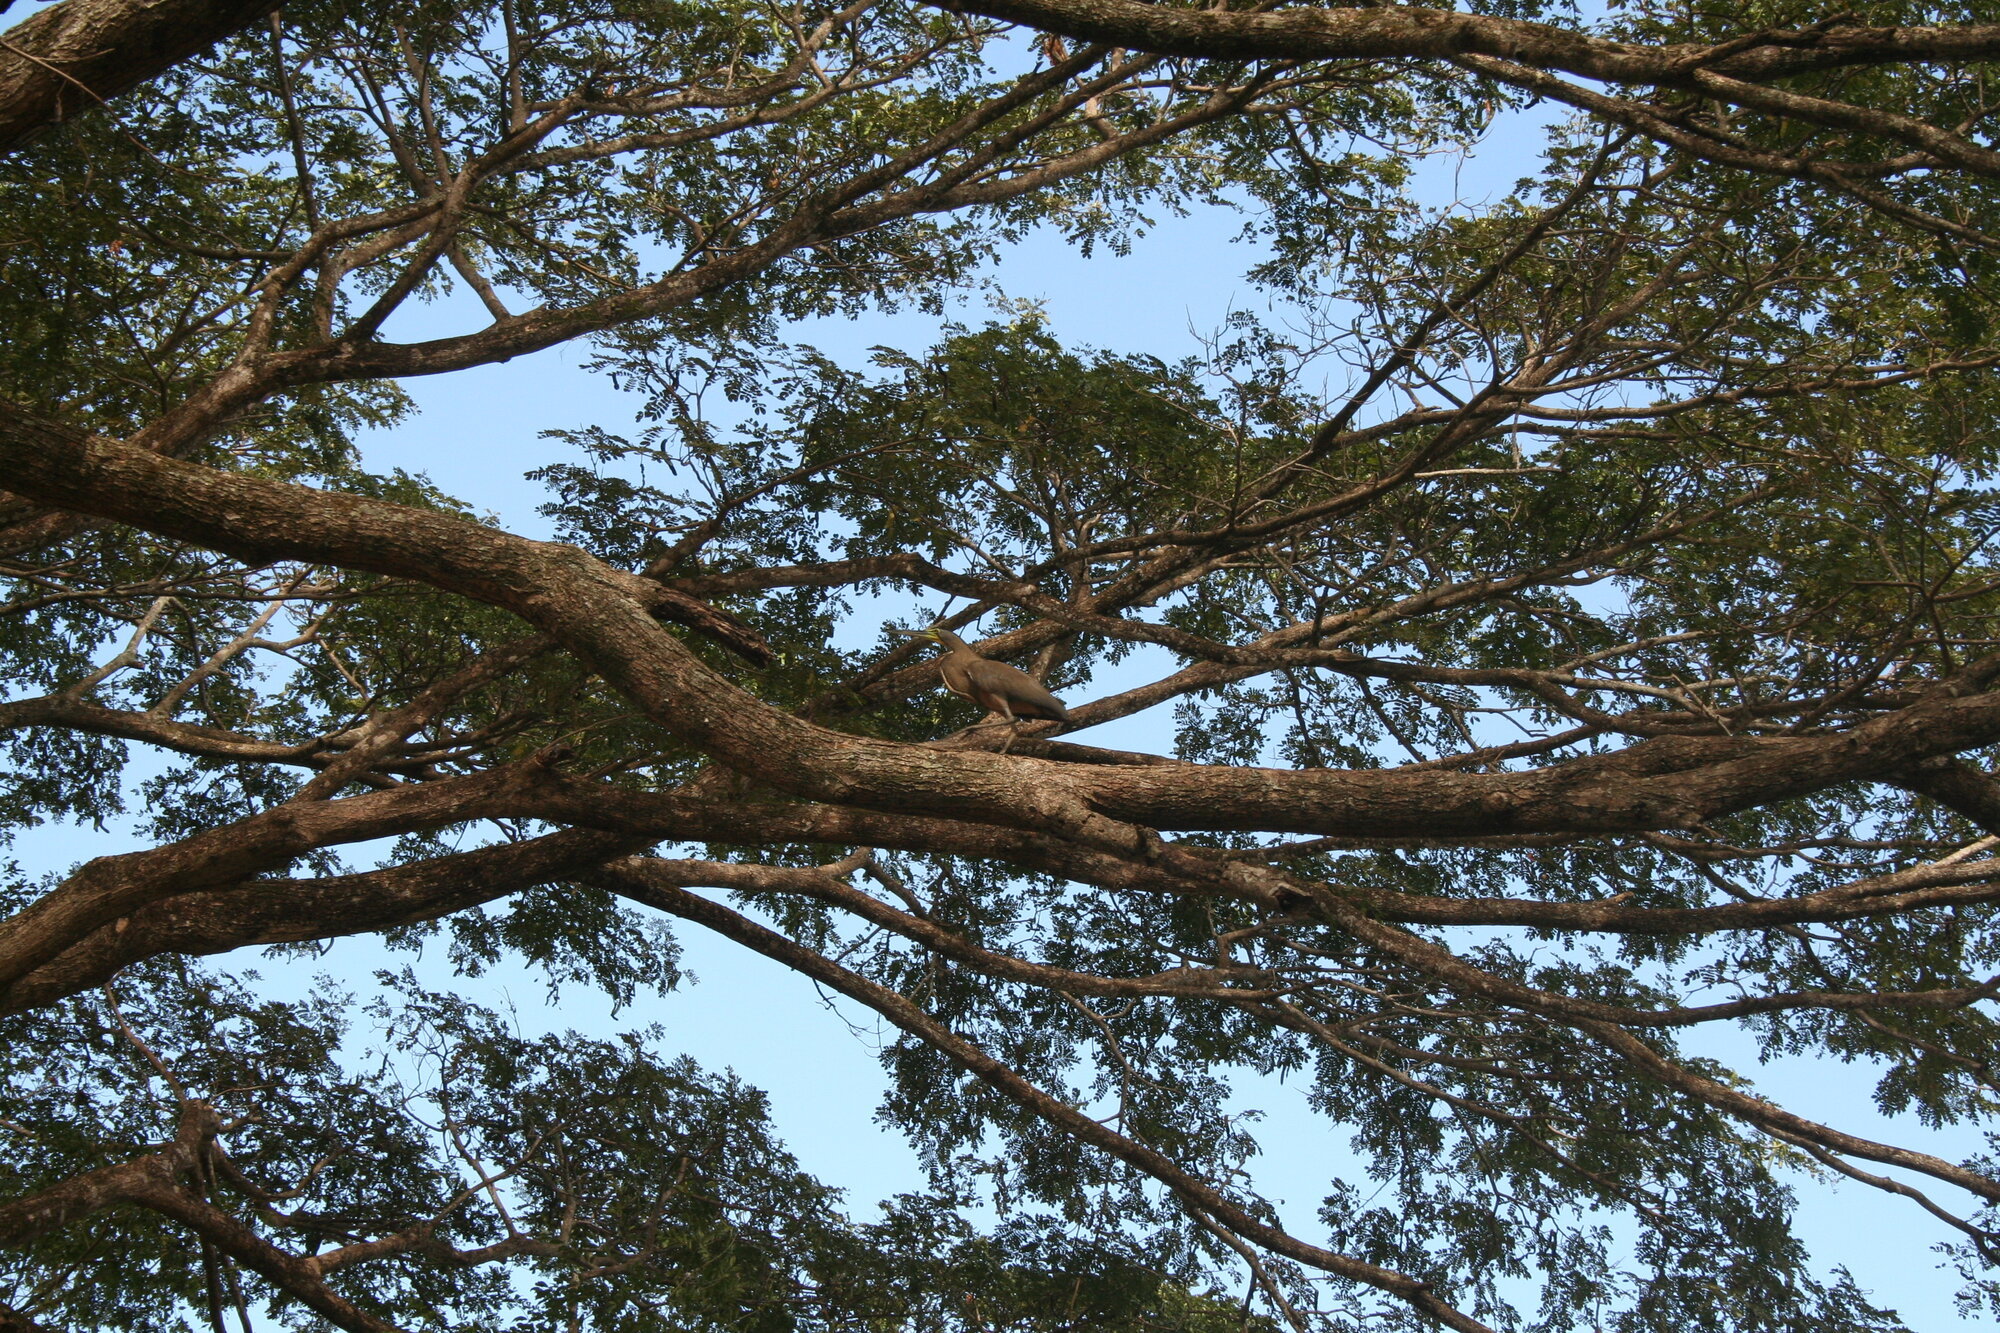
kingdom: Animalia
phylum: Chordata
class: Aves
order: Pelecaniformes
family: Ardeidae
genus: Tigrisoma
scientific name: Tigrisoma mexicanum
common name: Bare-throated tiger-heron
